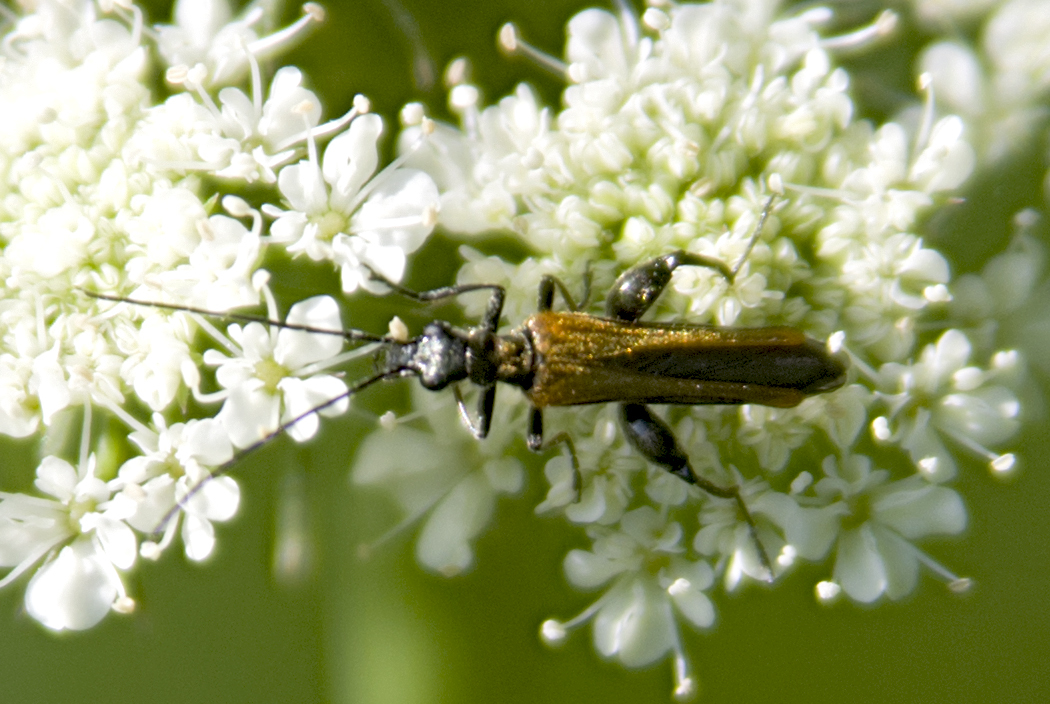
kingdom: Animalia
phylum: Arthropoda
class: Insecta
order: Coleoptera
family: Oedemeridae
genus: Oedemera
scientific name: Oedemera femorata
